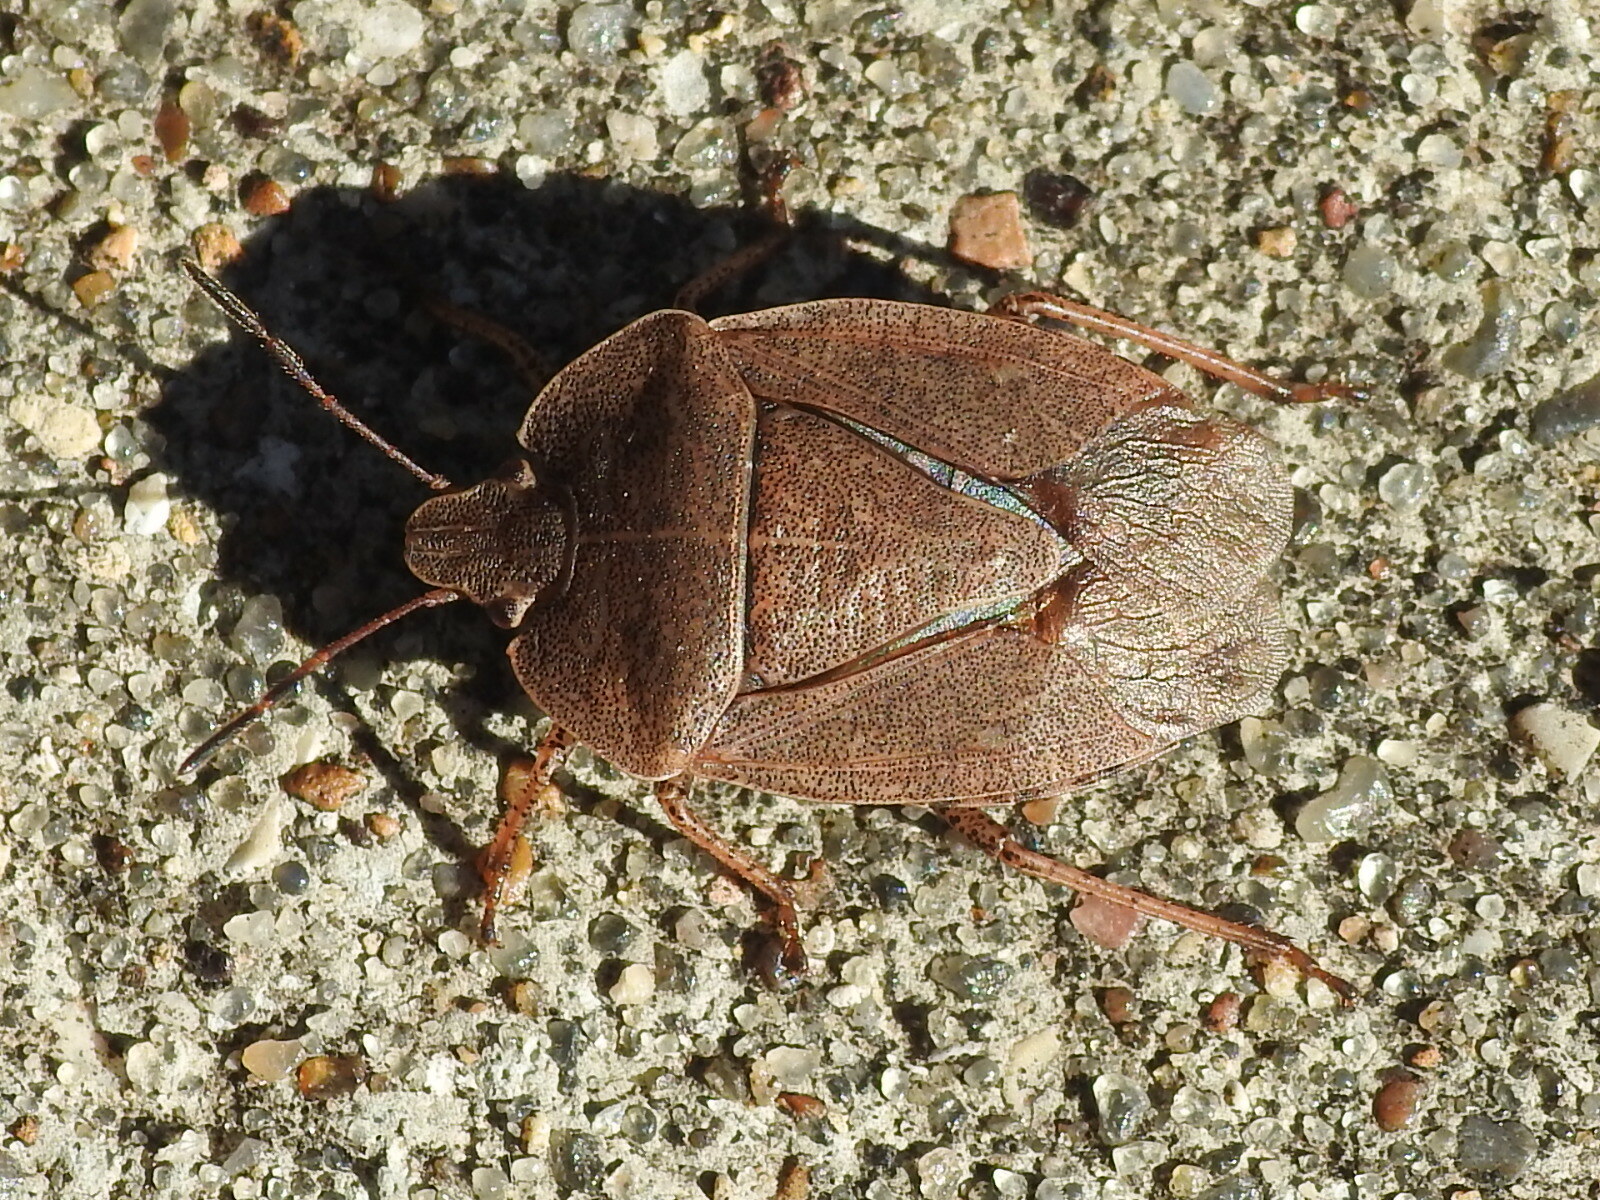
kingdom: Animalia
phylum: Arthropoda
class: Insecta
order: Hemiptera
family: Pentatomidae
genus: Menecles
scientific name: Menecles insertus
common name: Elf shoe stink bug
